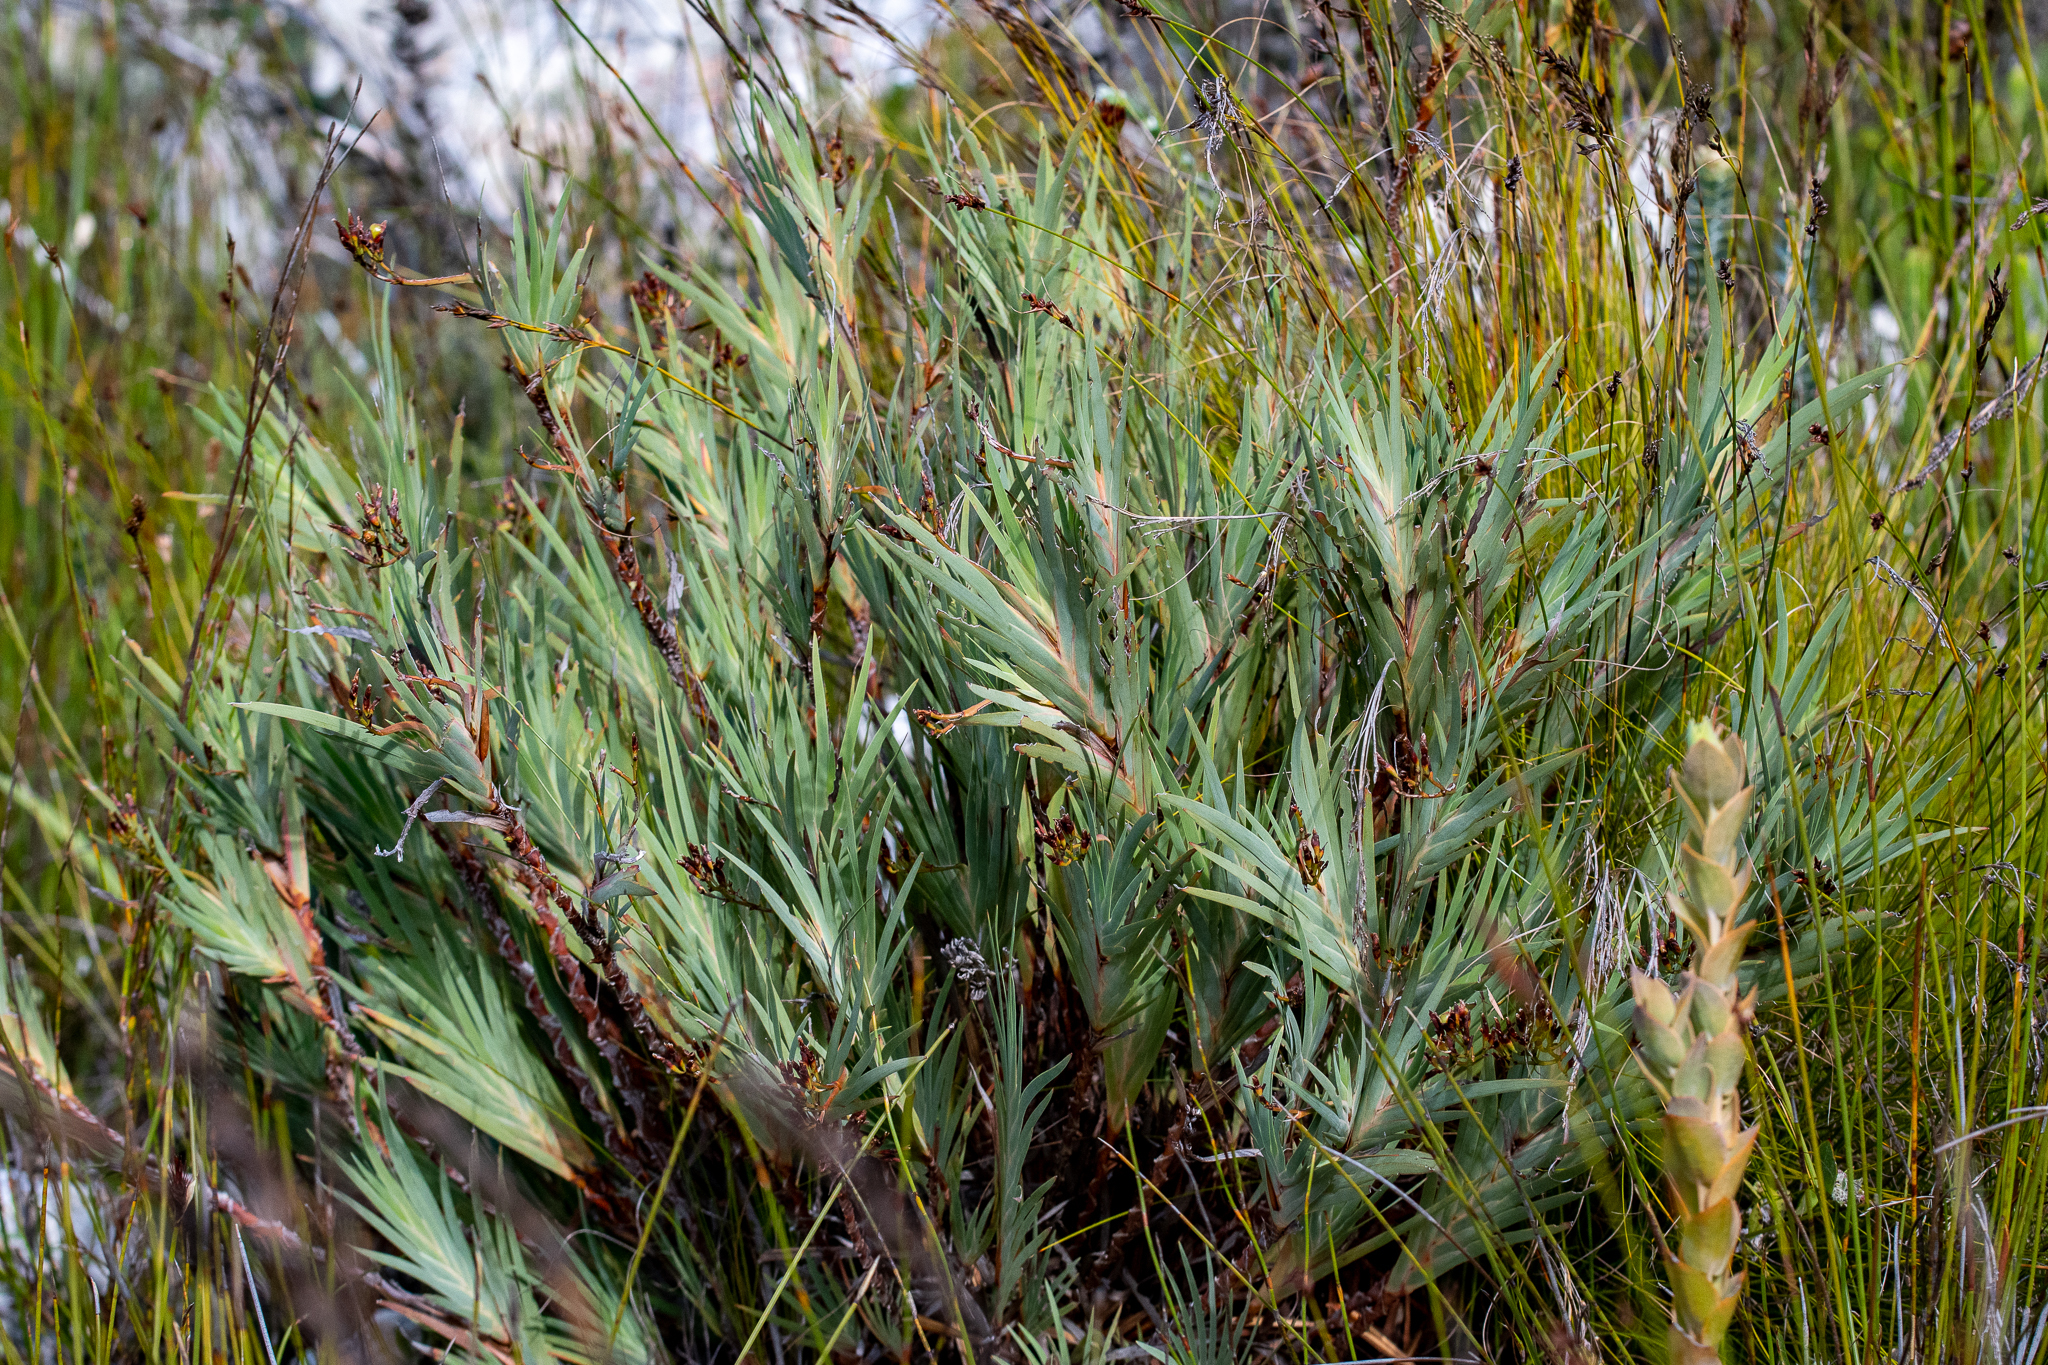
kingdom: Plantae
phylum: Tracheophyta
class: Liliopsida
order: Asparagales
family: Iridaceae
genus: Nivenia
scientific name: Nivenia stokoei
